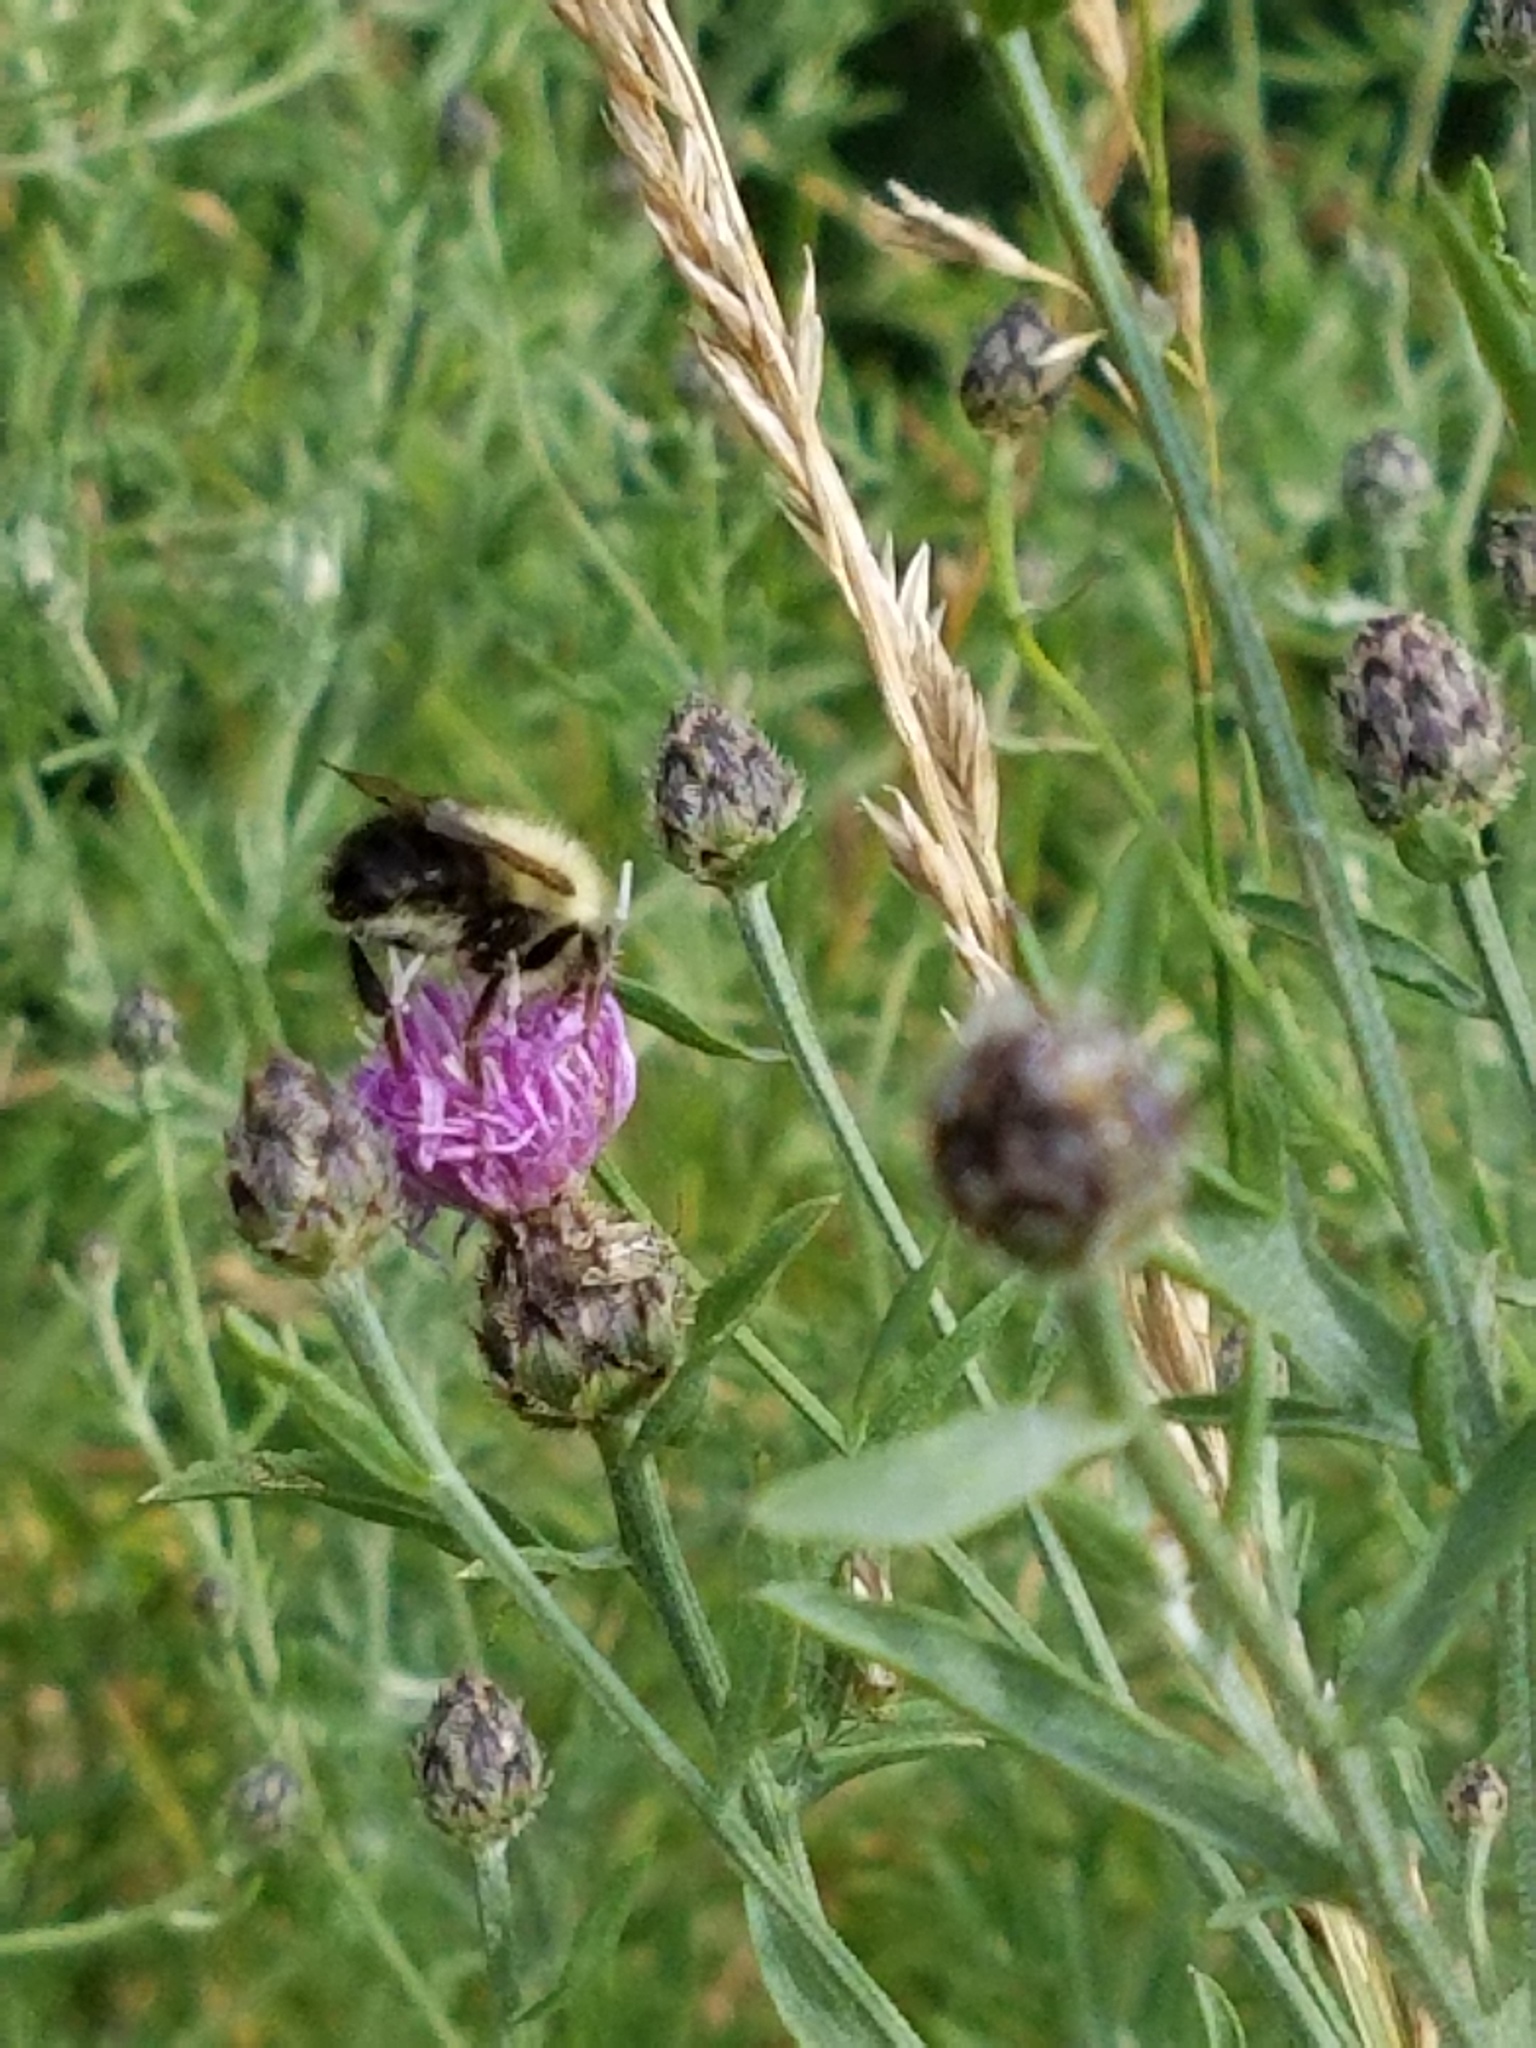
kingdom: Animalia
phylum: Arthropoda
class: Insecta
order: Hymenoptera
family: Apidae
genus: Pyrobombus
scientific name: Pyrobombus
